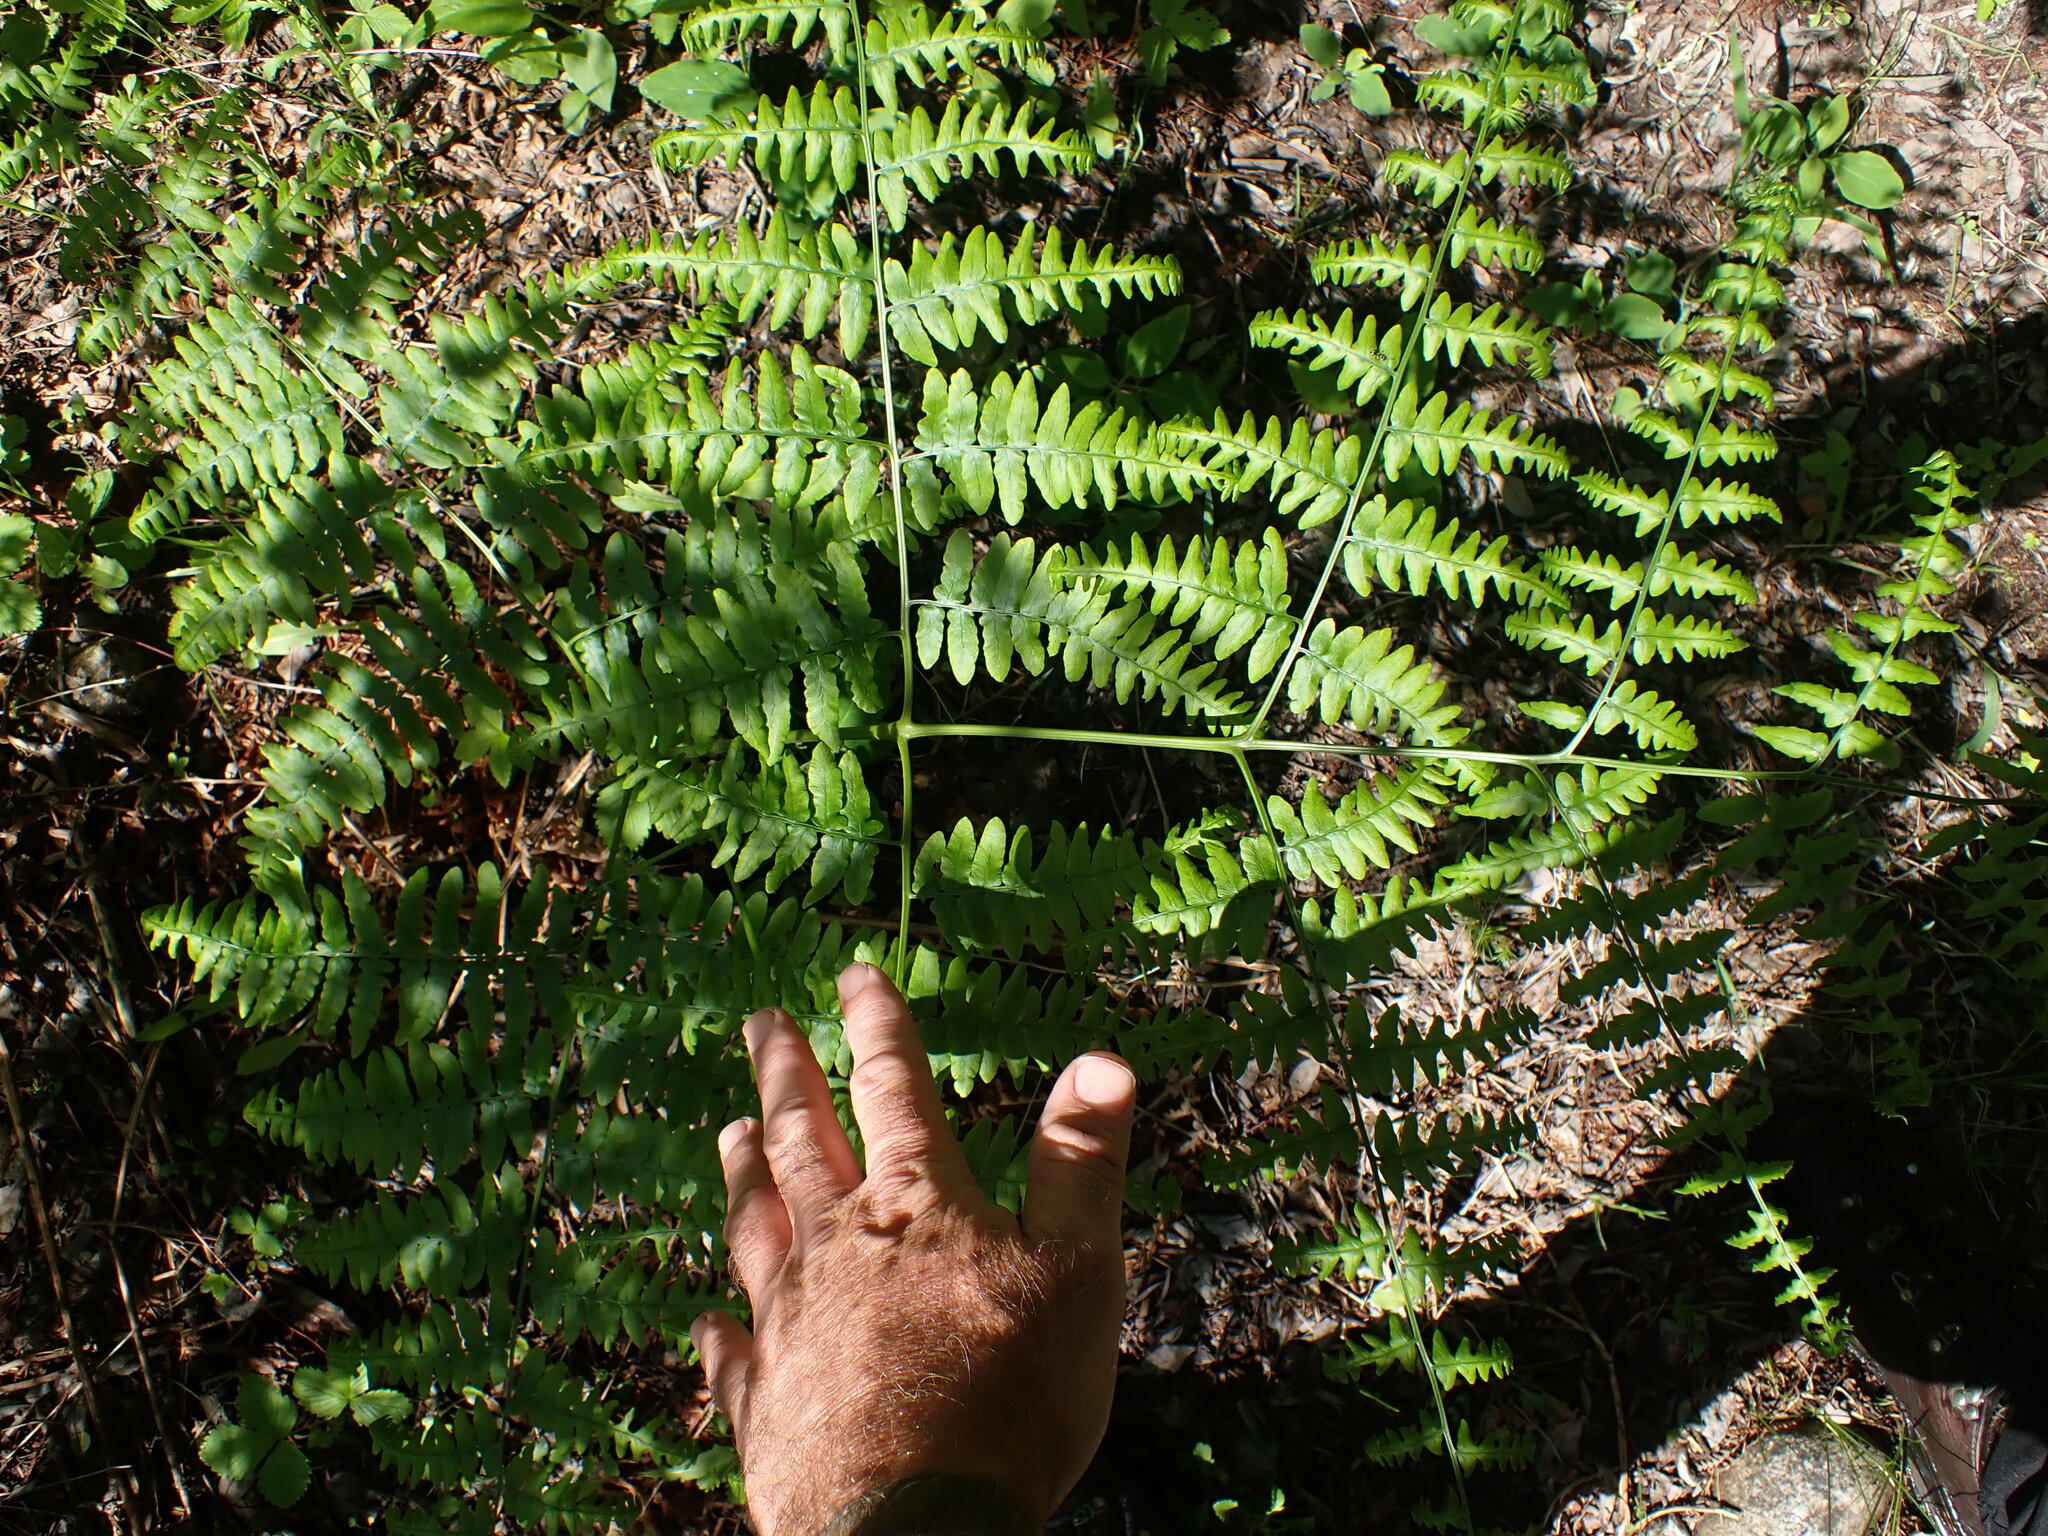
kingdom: Plantae
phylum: Tracheophyta
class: Polypodiopsida
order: Polypodiales
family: Dennstaedtiaceae
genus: Pteridium
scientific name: Pteridium aquilinum
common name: Bracken
